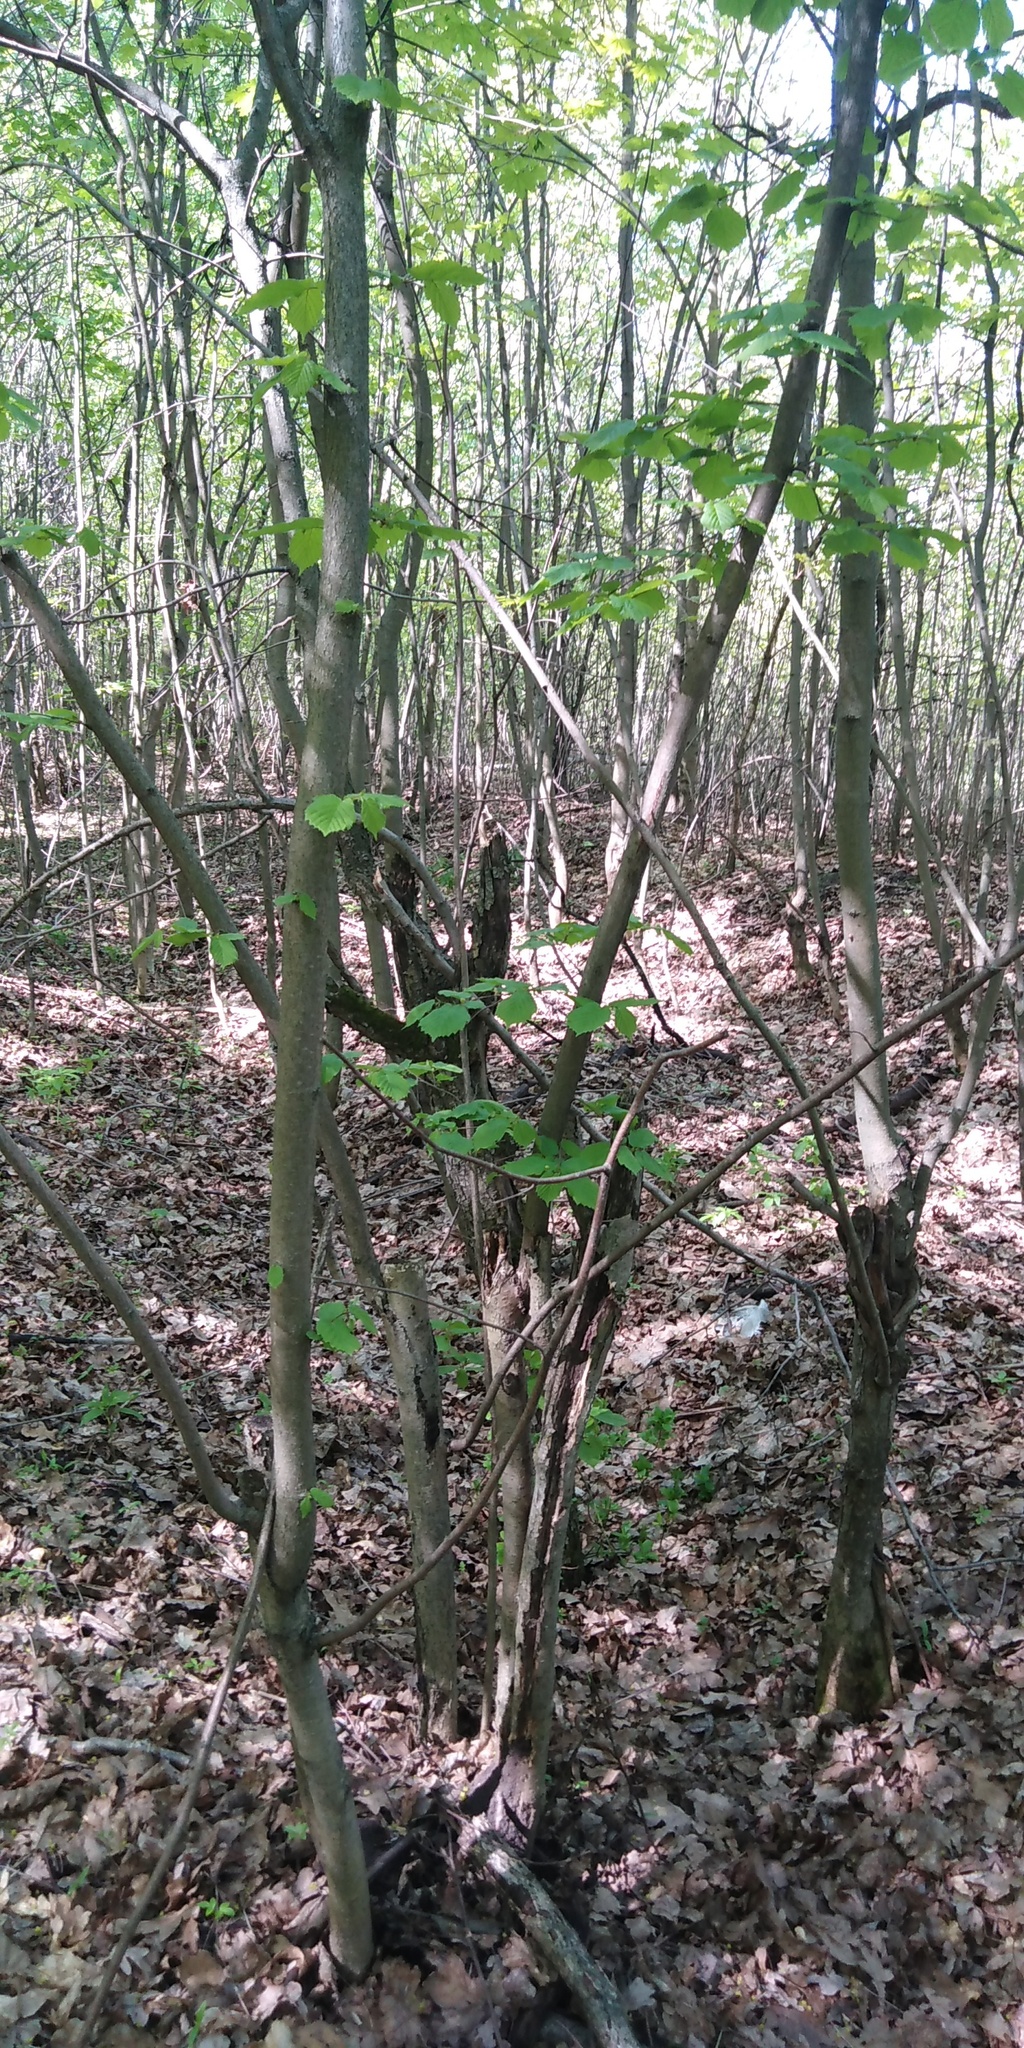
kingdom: Plantae
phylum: Tracheophyta
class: Magnoliopsida
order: Fagales
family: Betulaceae
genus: Corylus
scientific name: Corylus avellana
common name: European hazel
